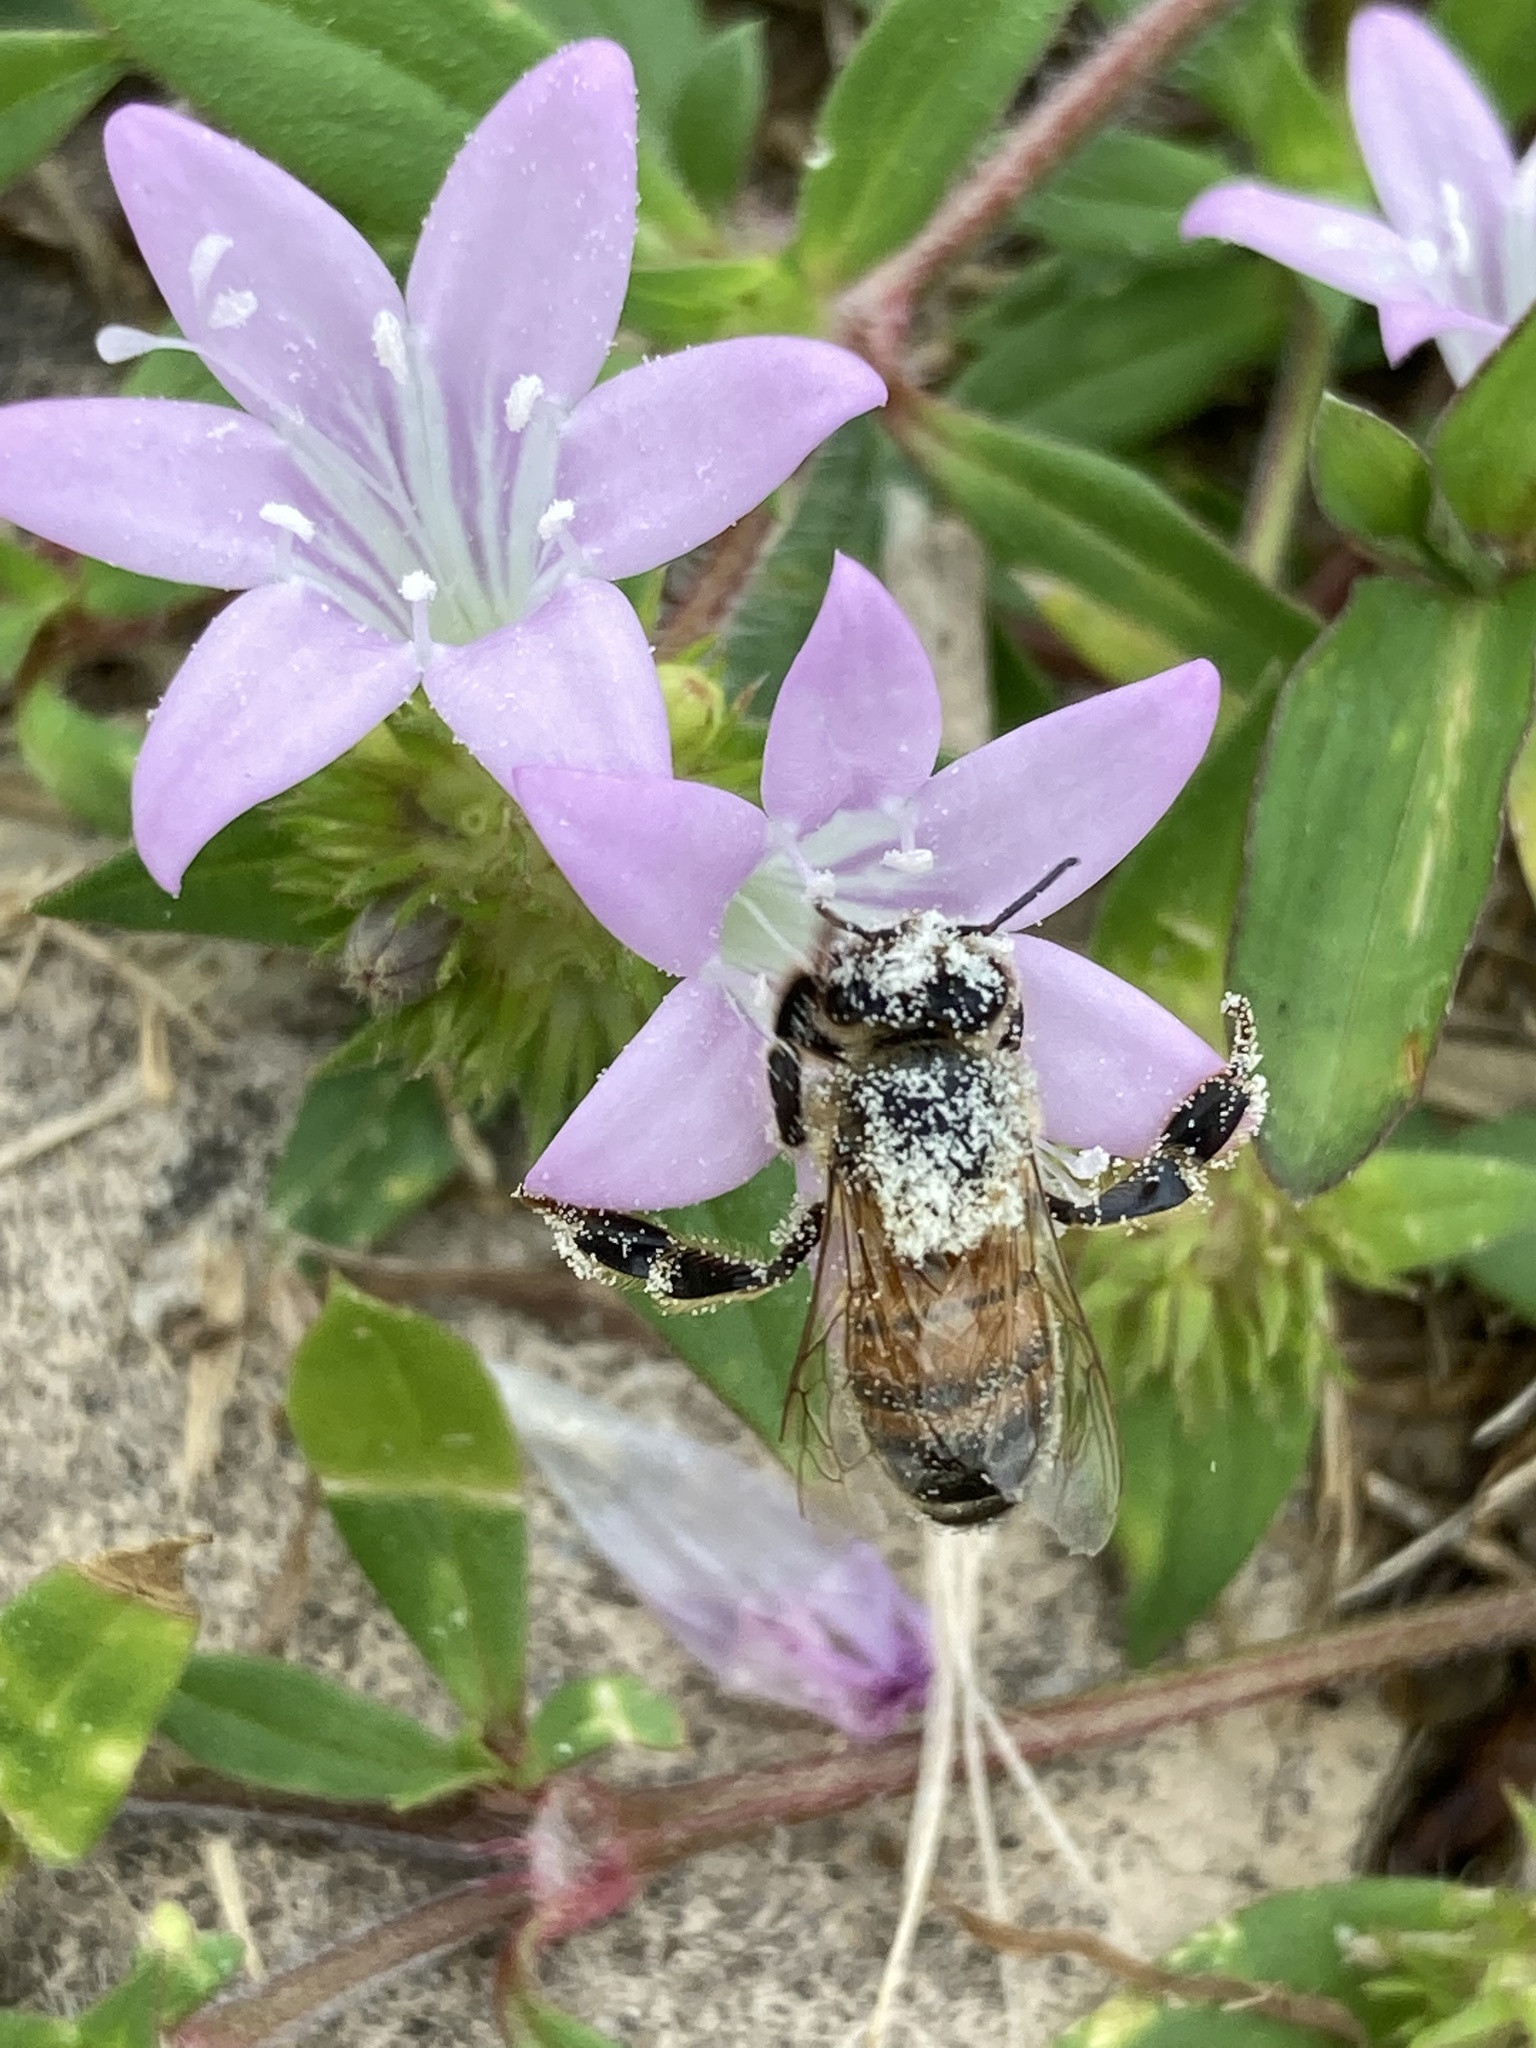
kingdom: Animalia
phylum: Arthropoda
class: Insecta
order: Hymenoptera
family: Apidae
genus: Apis
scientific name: Apis mellifera
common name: Honey bee
